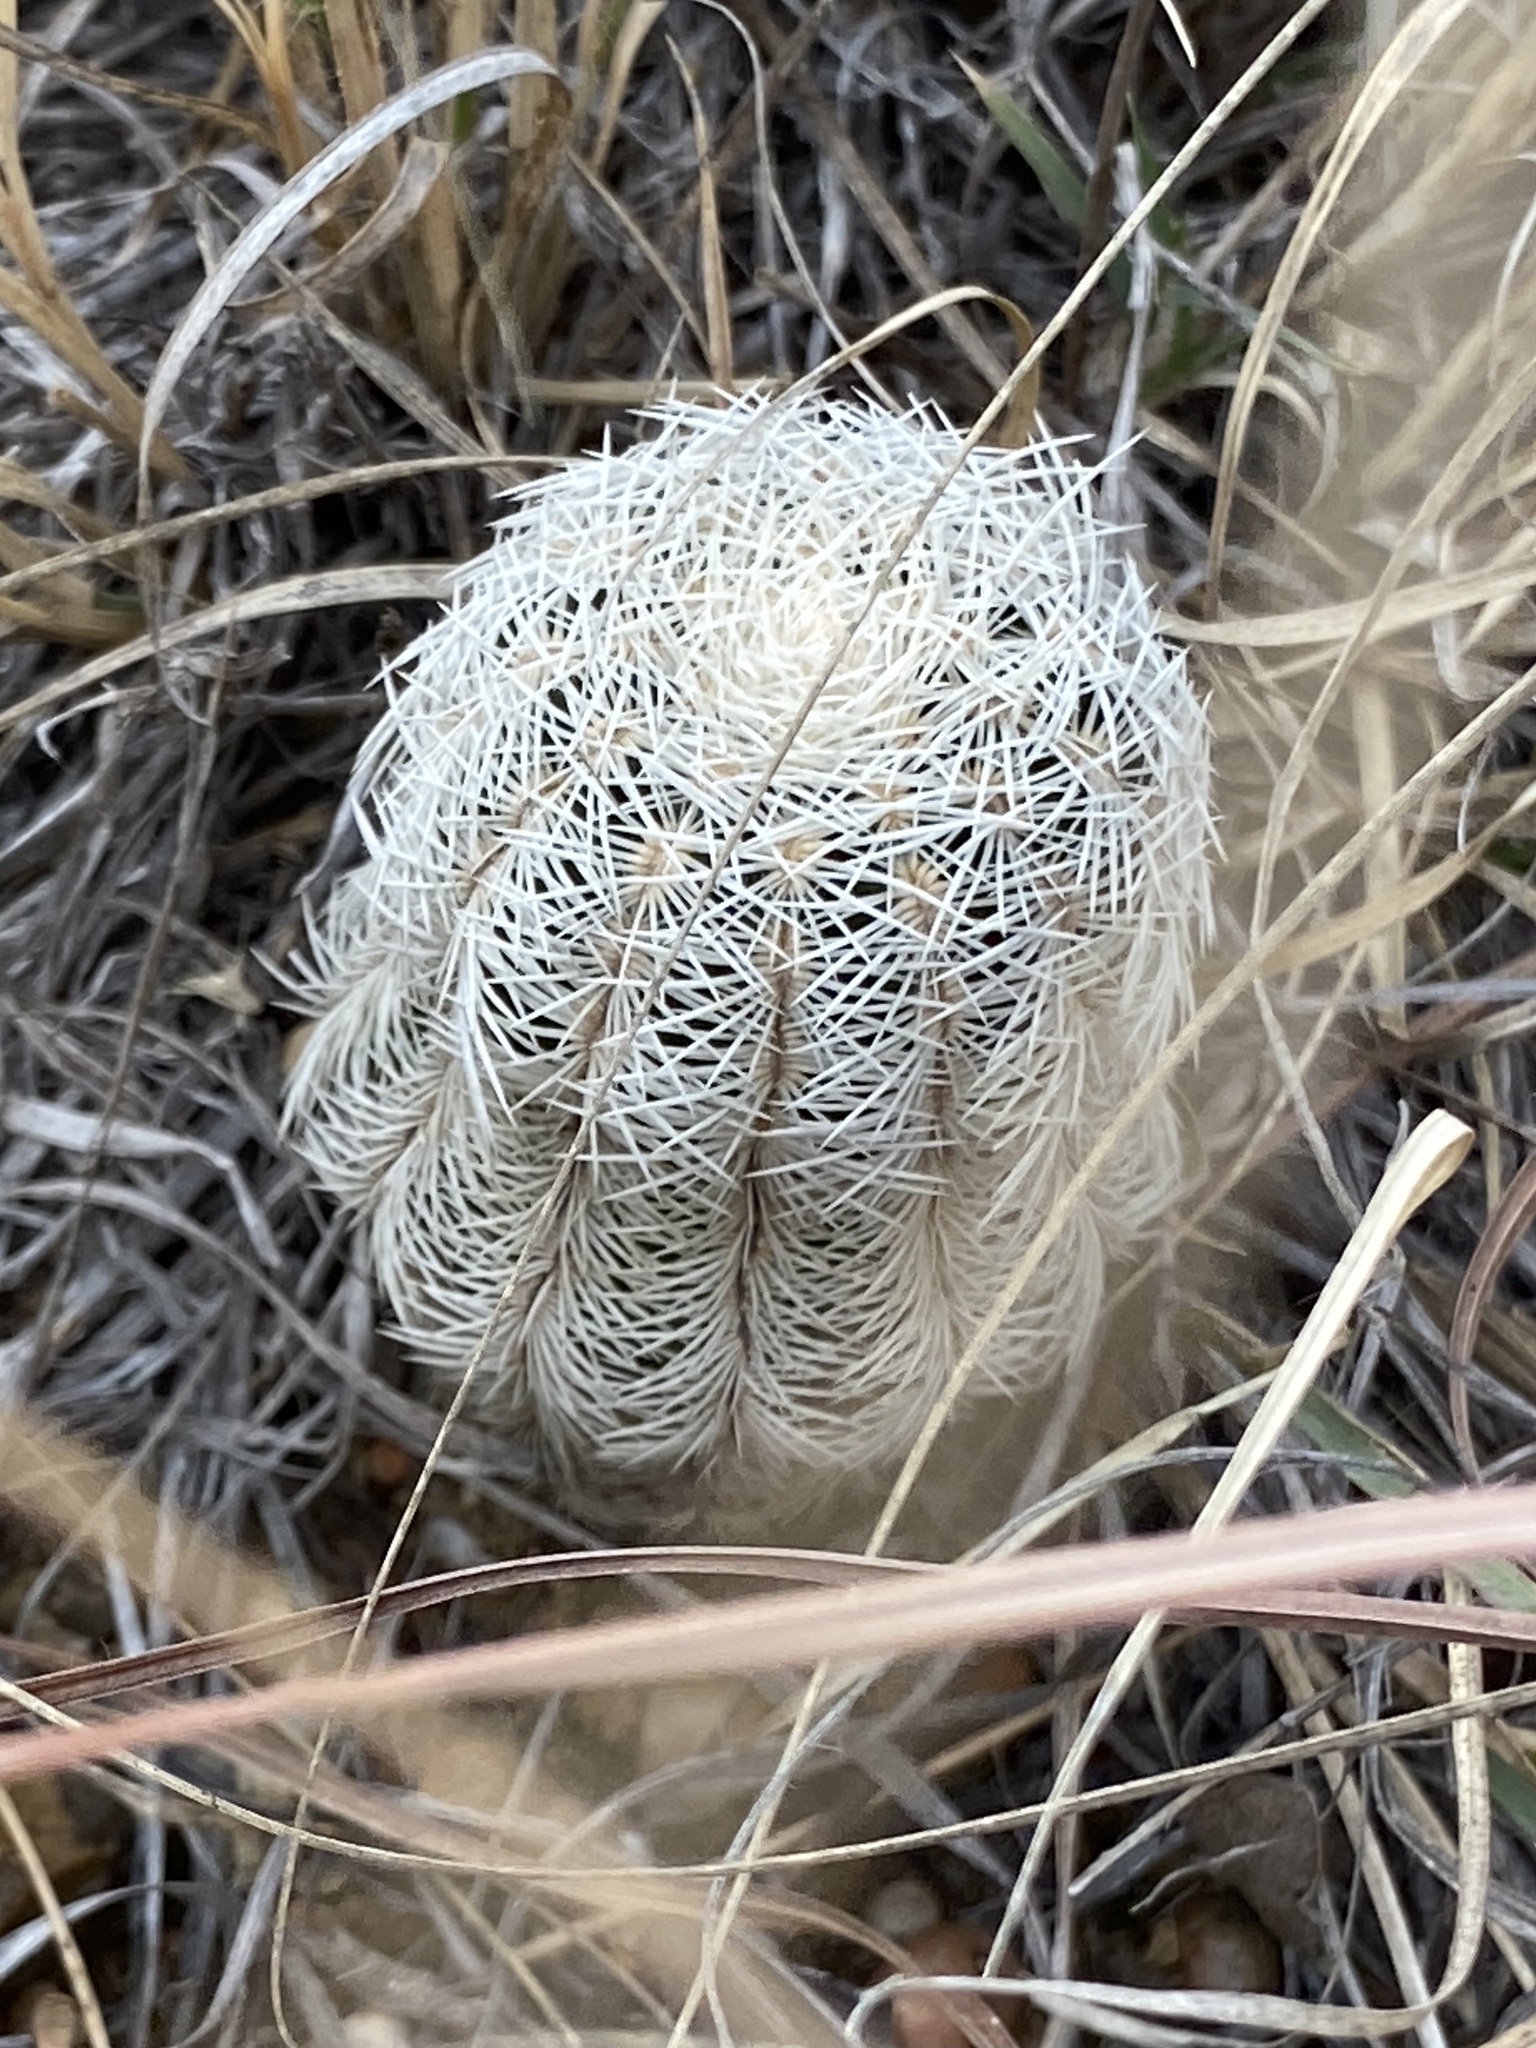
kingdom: Plantae
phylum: Tracheophyta
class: Magnoliopsida
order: Caryophyllales
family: Cactaceae
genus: Echinocereus
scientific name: Echinocereus reichenbachii
